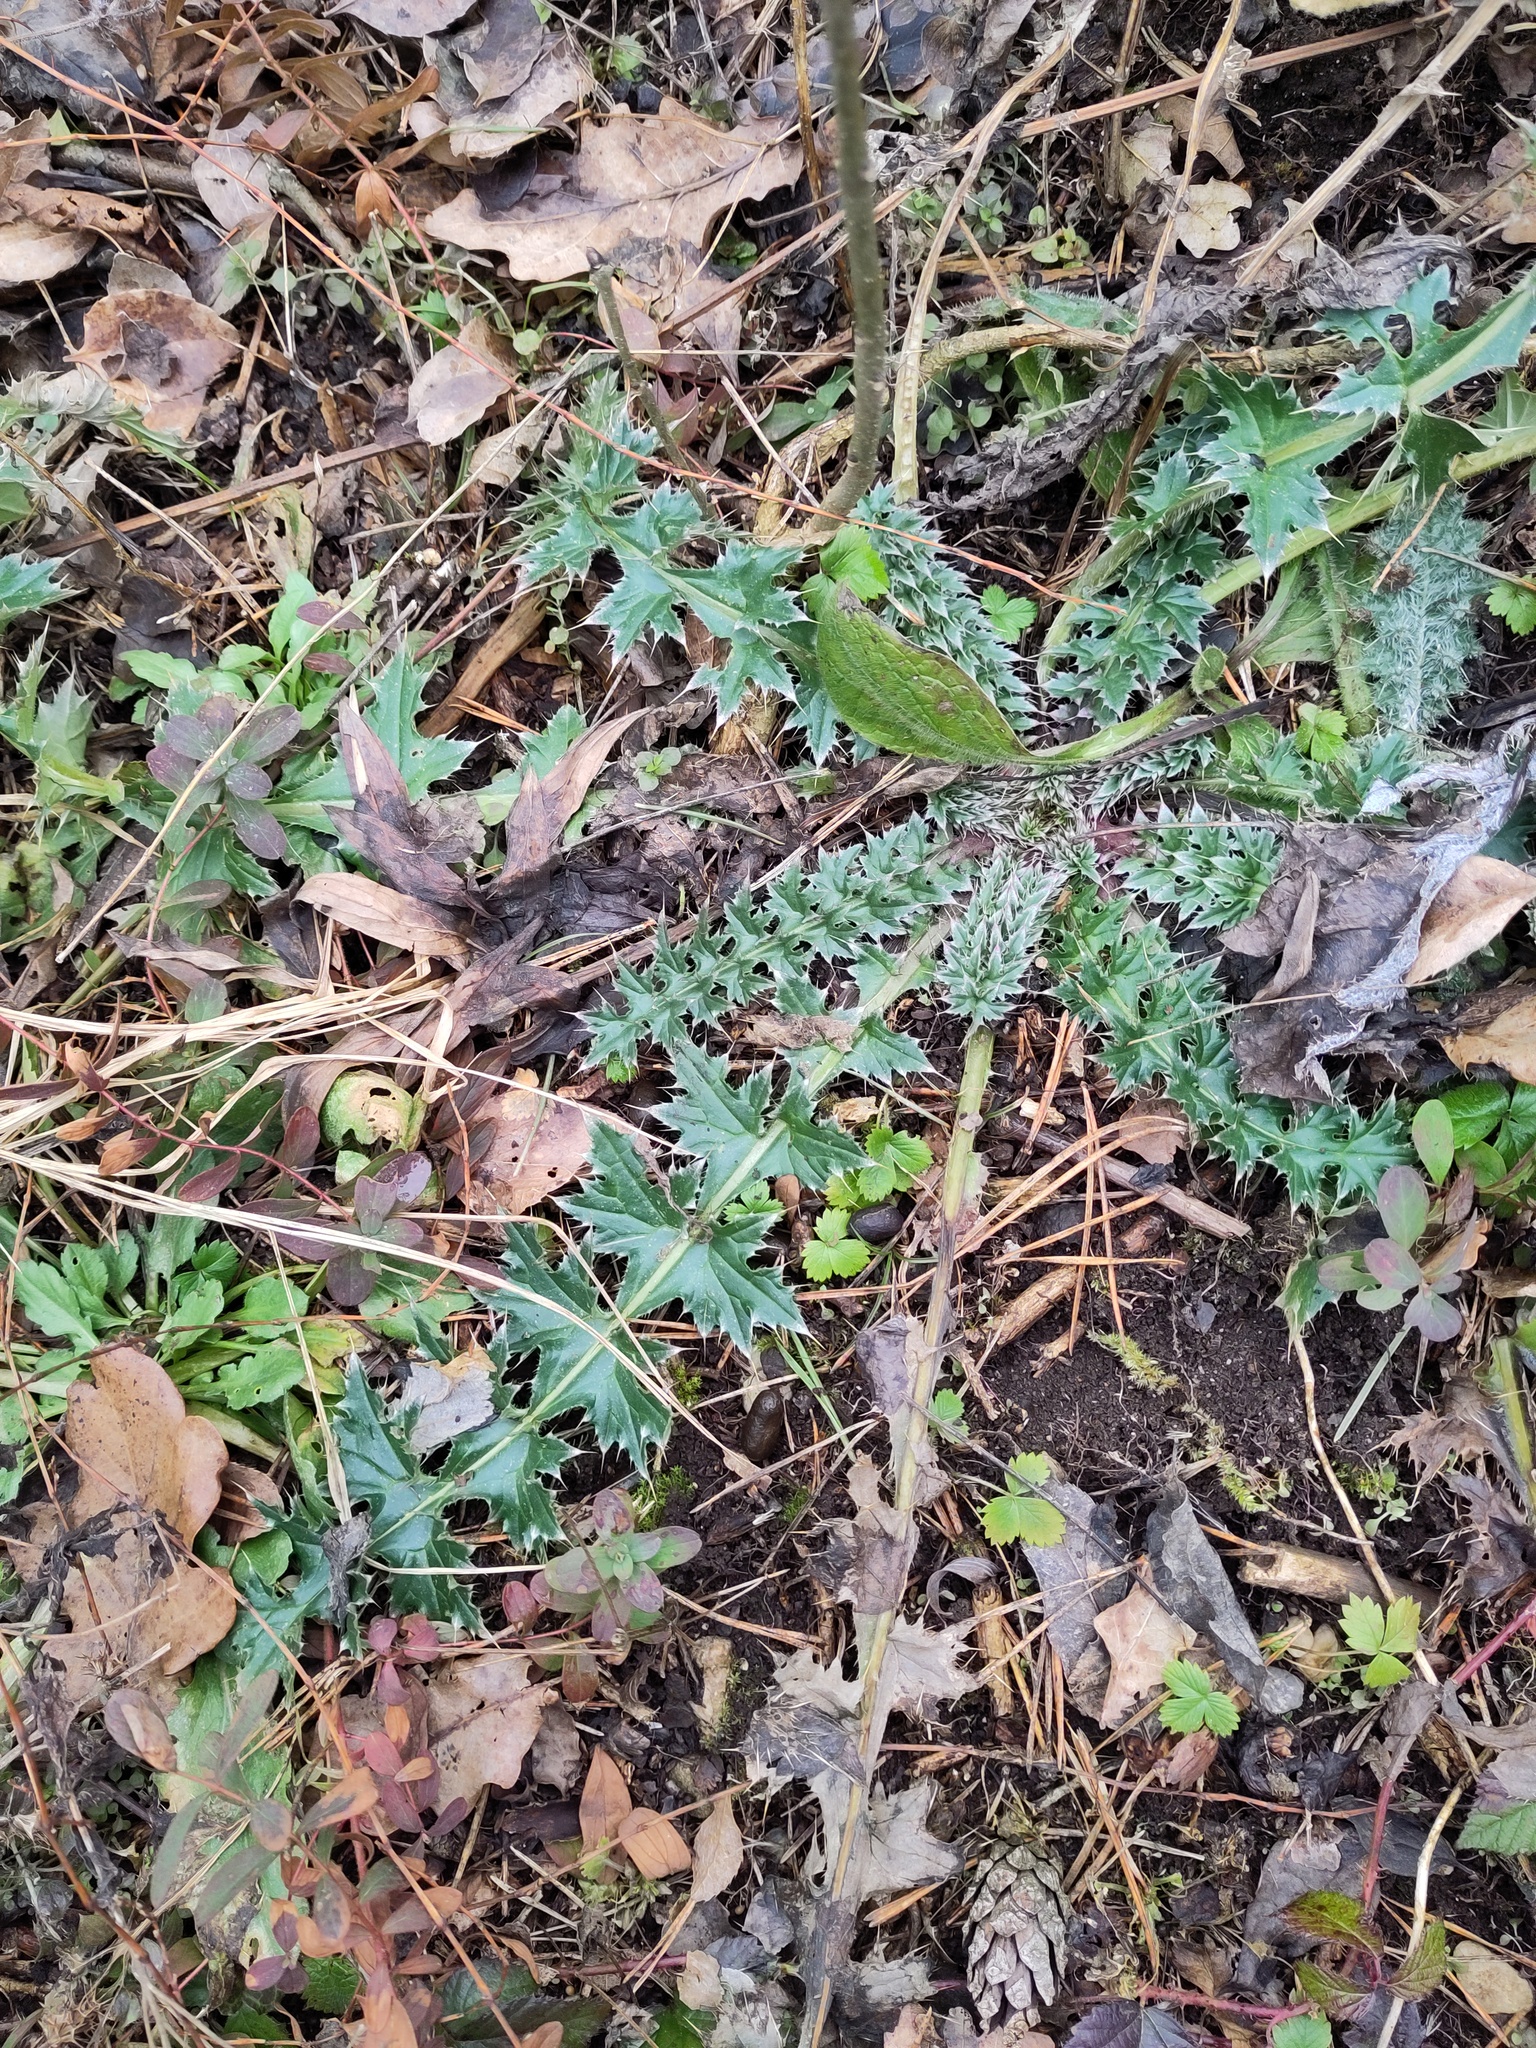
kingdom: Plantae
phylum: Tracheophyta
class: Magnoliopsida
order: Asterales
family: Asteraceae
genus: Carduus
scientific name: Carduus acanthoides
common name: Plumeless thistle
